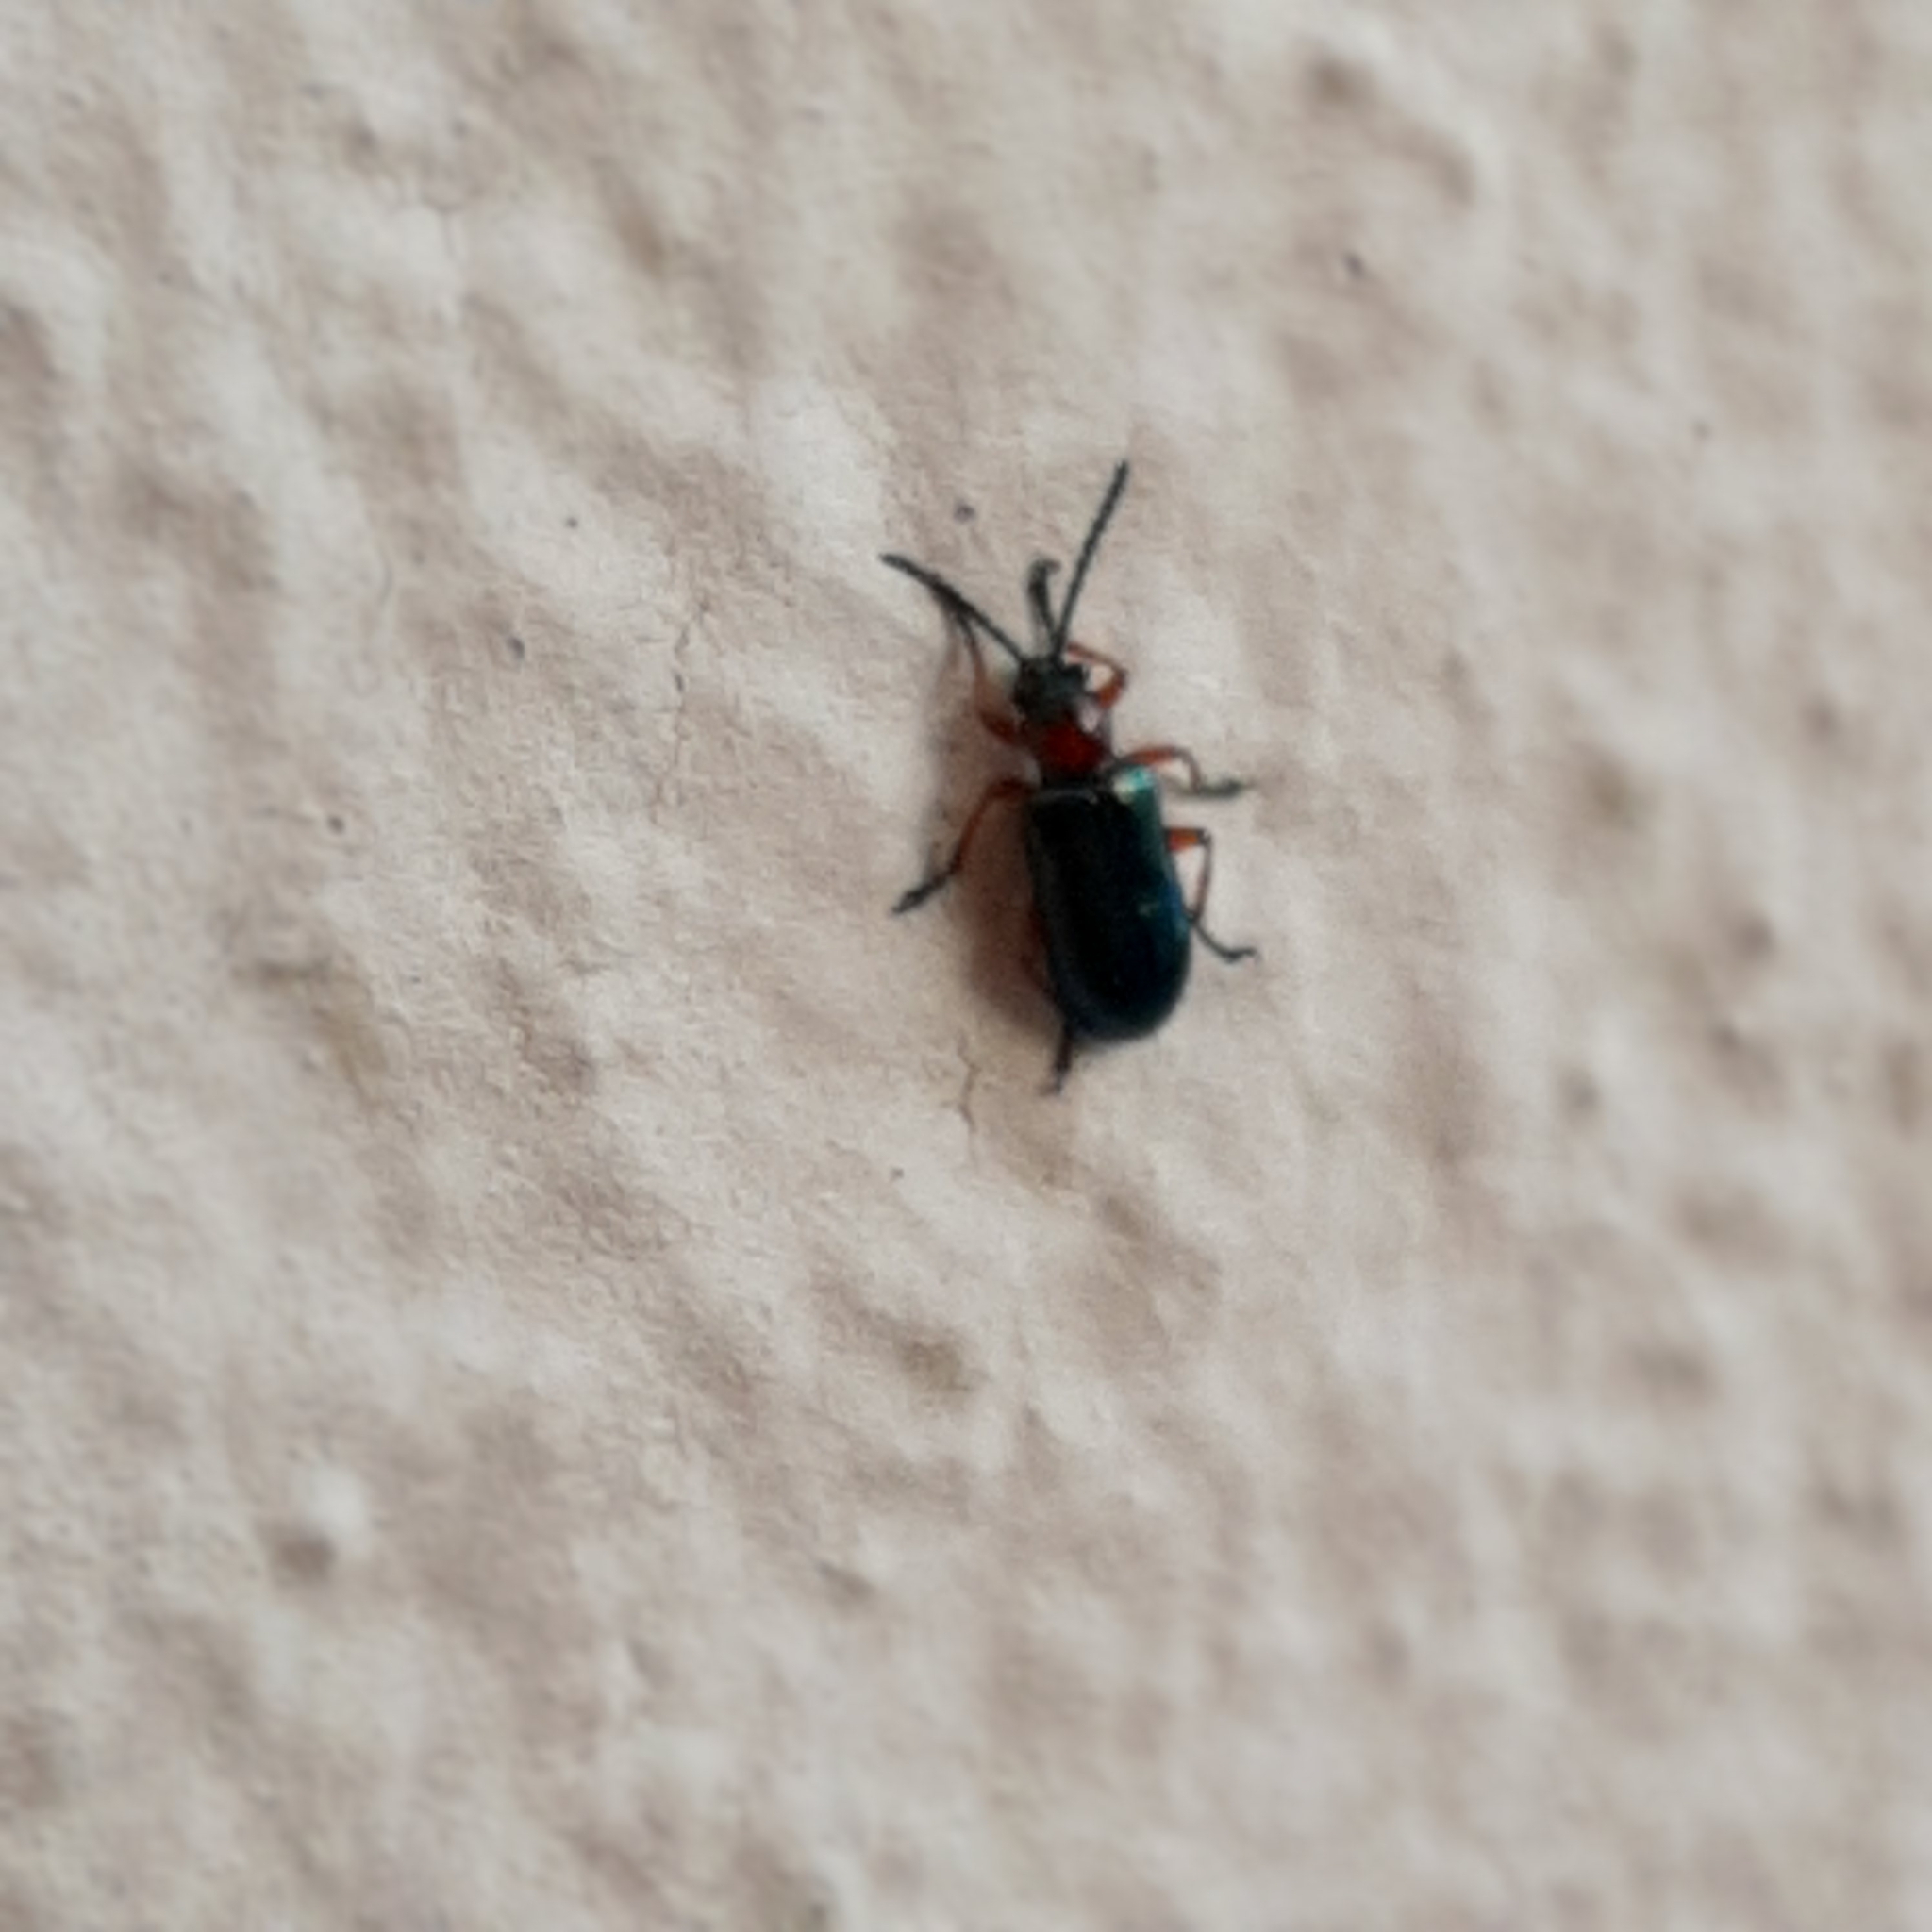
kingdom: Animalia
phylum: Arthropoda
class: Insecta
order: Coleoptera
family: Chrysomelidae
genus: Oulema
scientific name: Oulema
